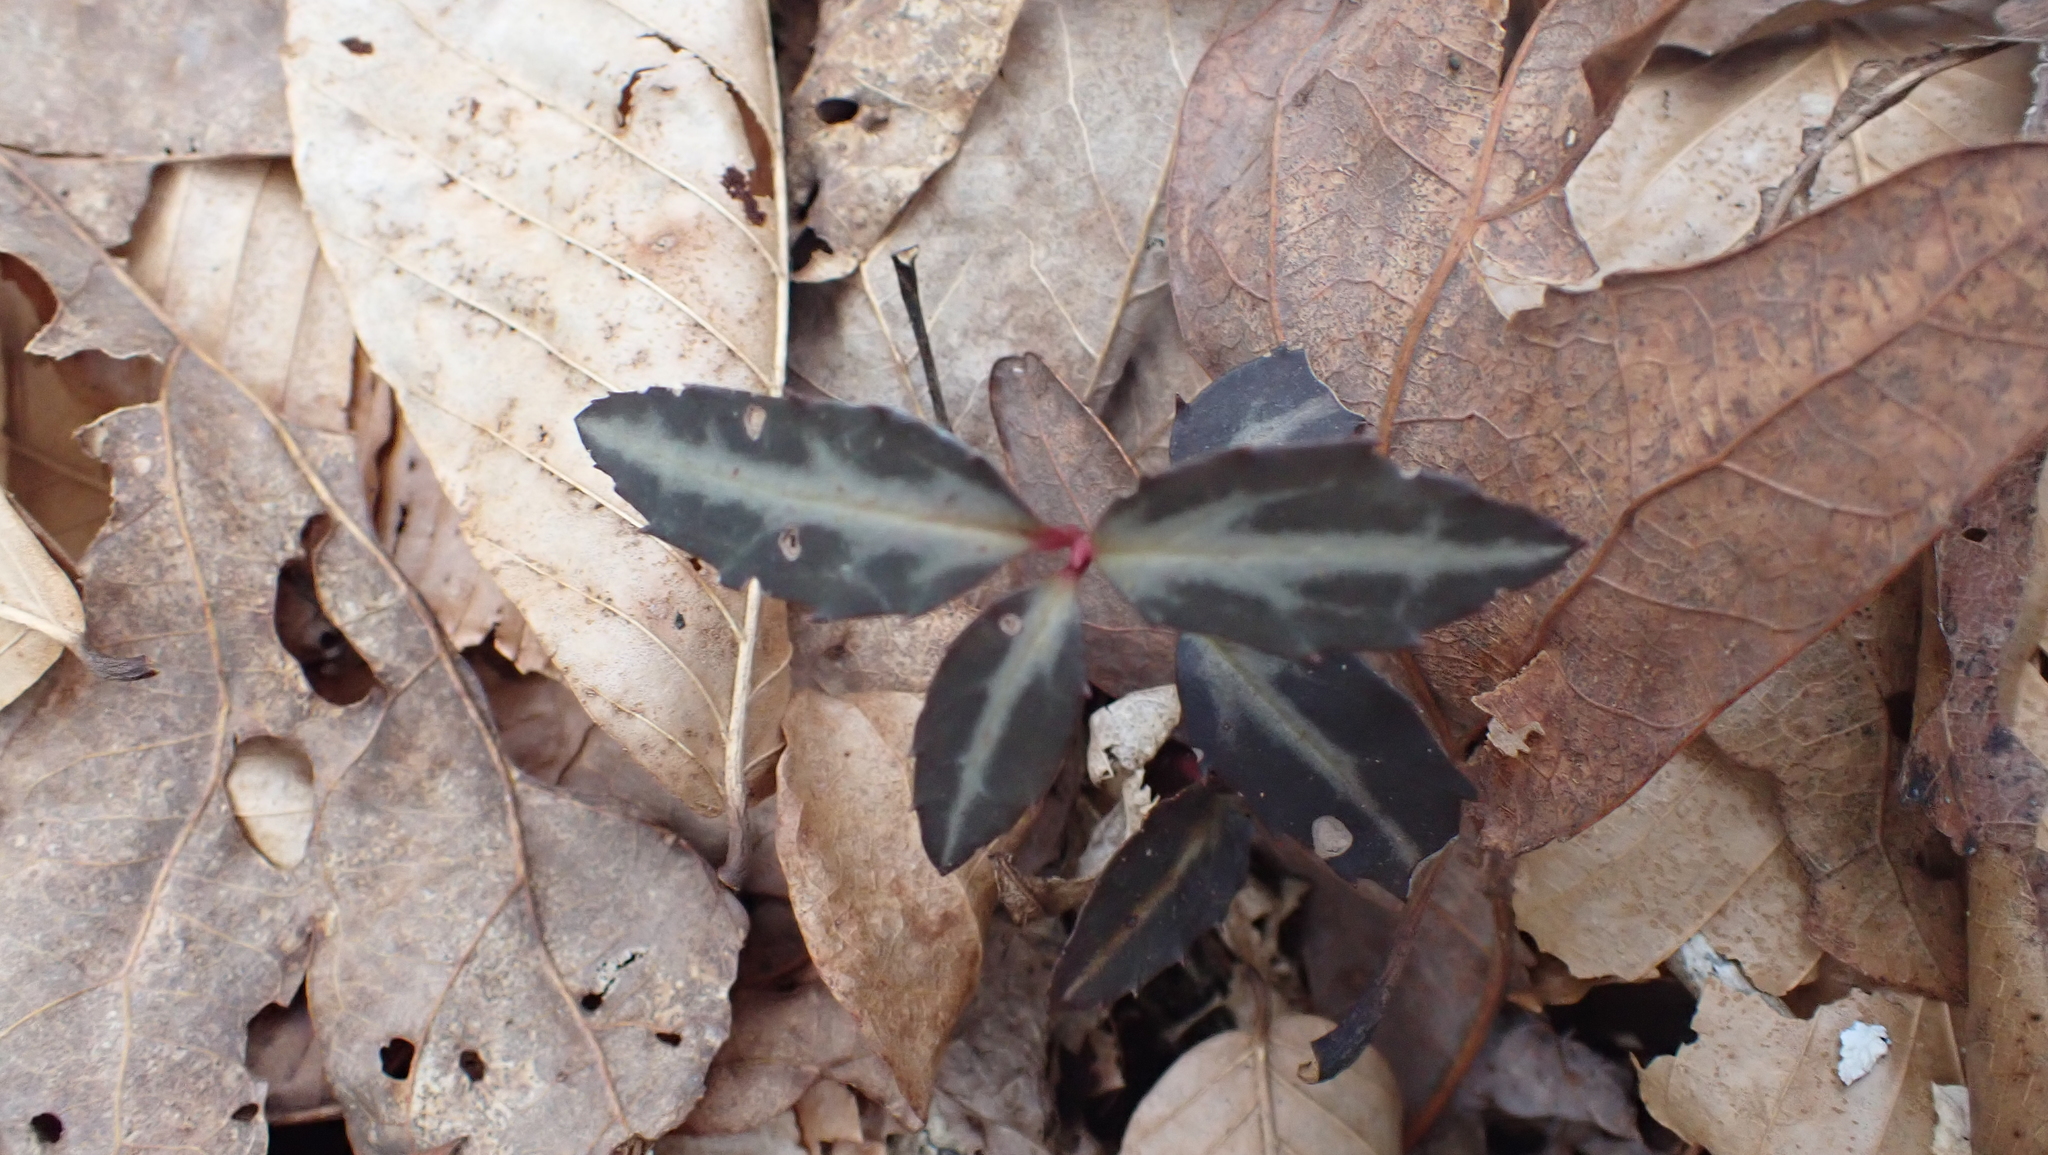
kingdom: Plantae
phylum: Tracheophyta
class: Magnoliopsida
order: Ericales
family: Ericaceae
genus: Chimaphila
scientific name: Chimaphila maculata
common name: Spotted pipsissewa
